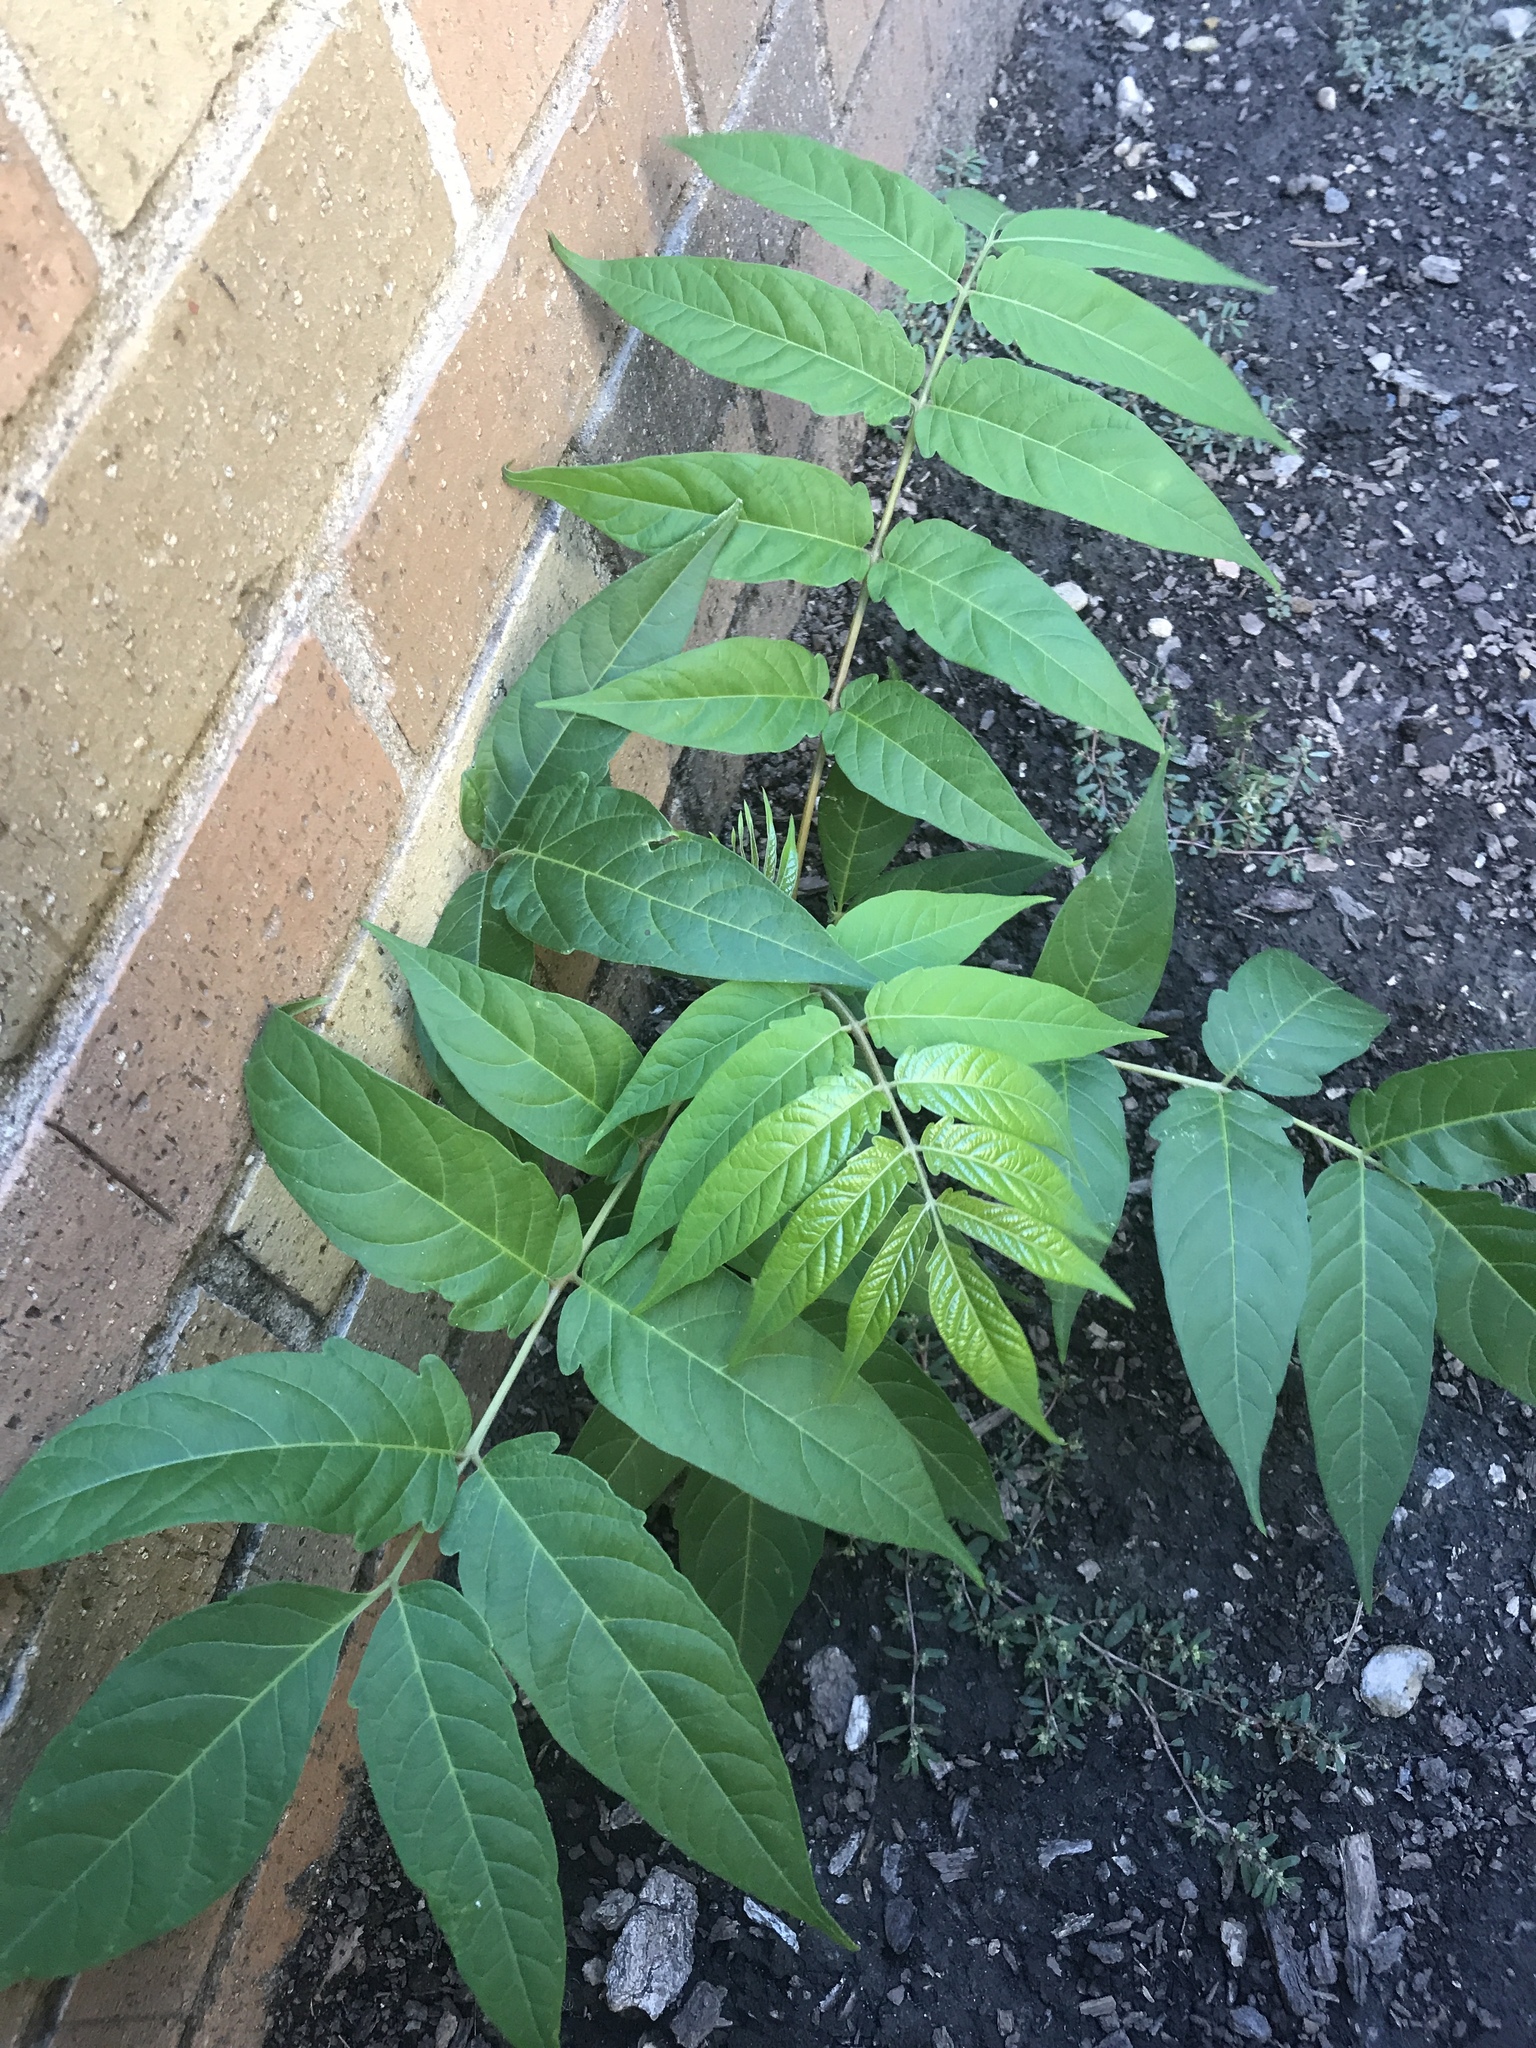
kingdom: Plantae
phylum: Tracheophyta
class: Magnoliopsida
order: Sapindales
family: Simaroubaceae
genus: Ailanthus
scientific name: Ailanthus altissima
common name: Tree-of-heaven
